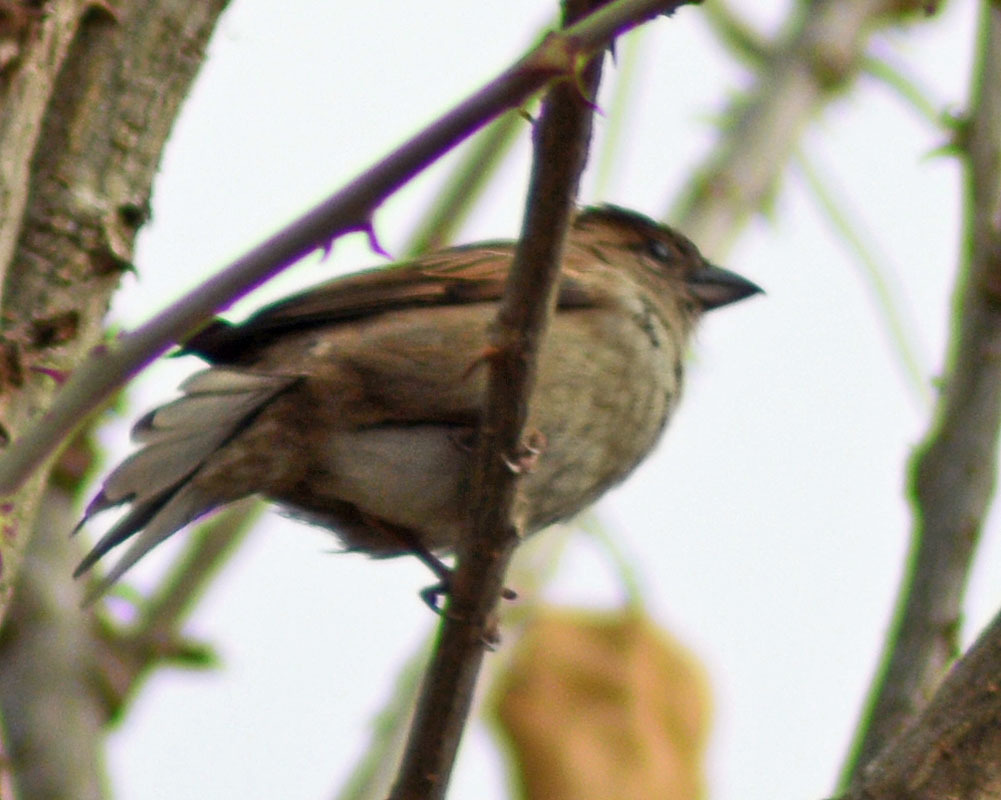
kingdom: Animalia
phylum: Chordata
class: Aves
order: Passeriformes
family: Passeridae
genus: Passer
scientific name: Passer domesticus
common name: House sparrow
